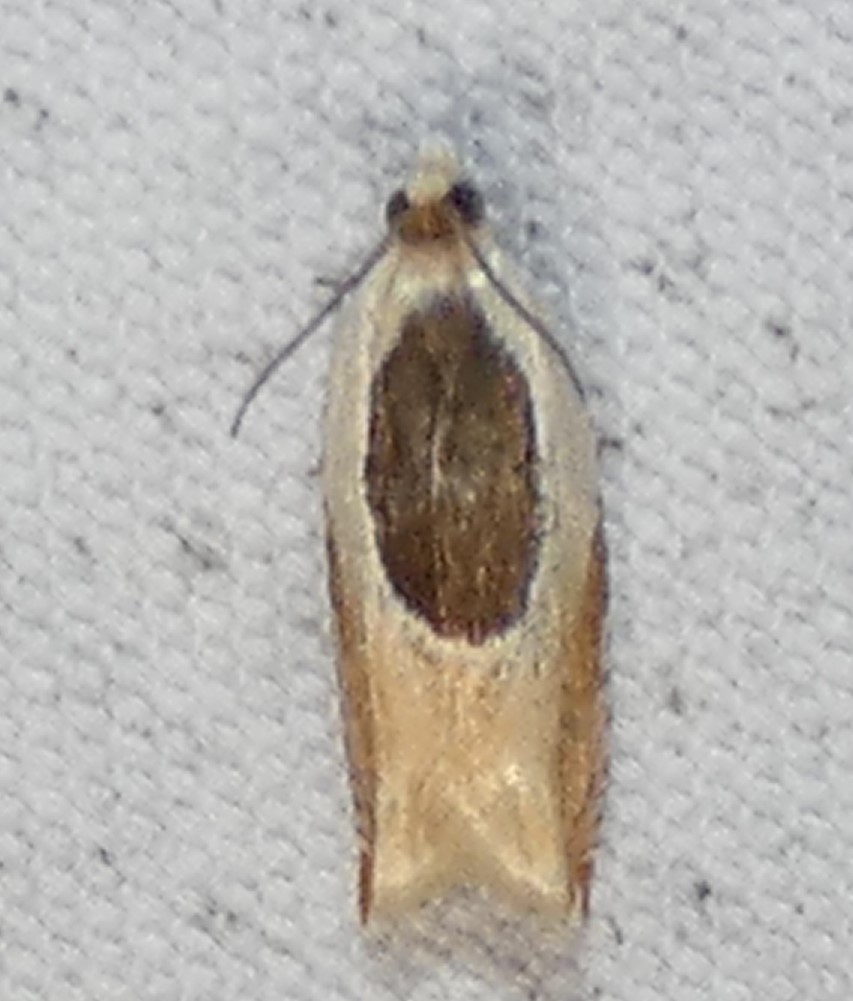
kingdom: Animalia
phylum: Arthropoda
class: Insecta
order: Lepidoptera
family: Tortricidae
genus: Ancylis
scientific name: Ancylis burgessiana
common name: Oak leaffolder moth
